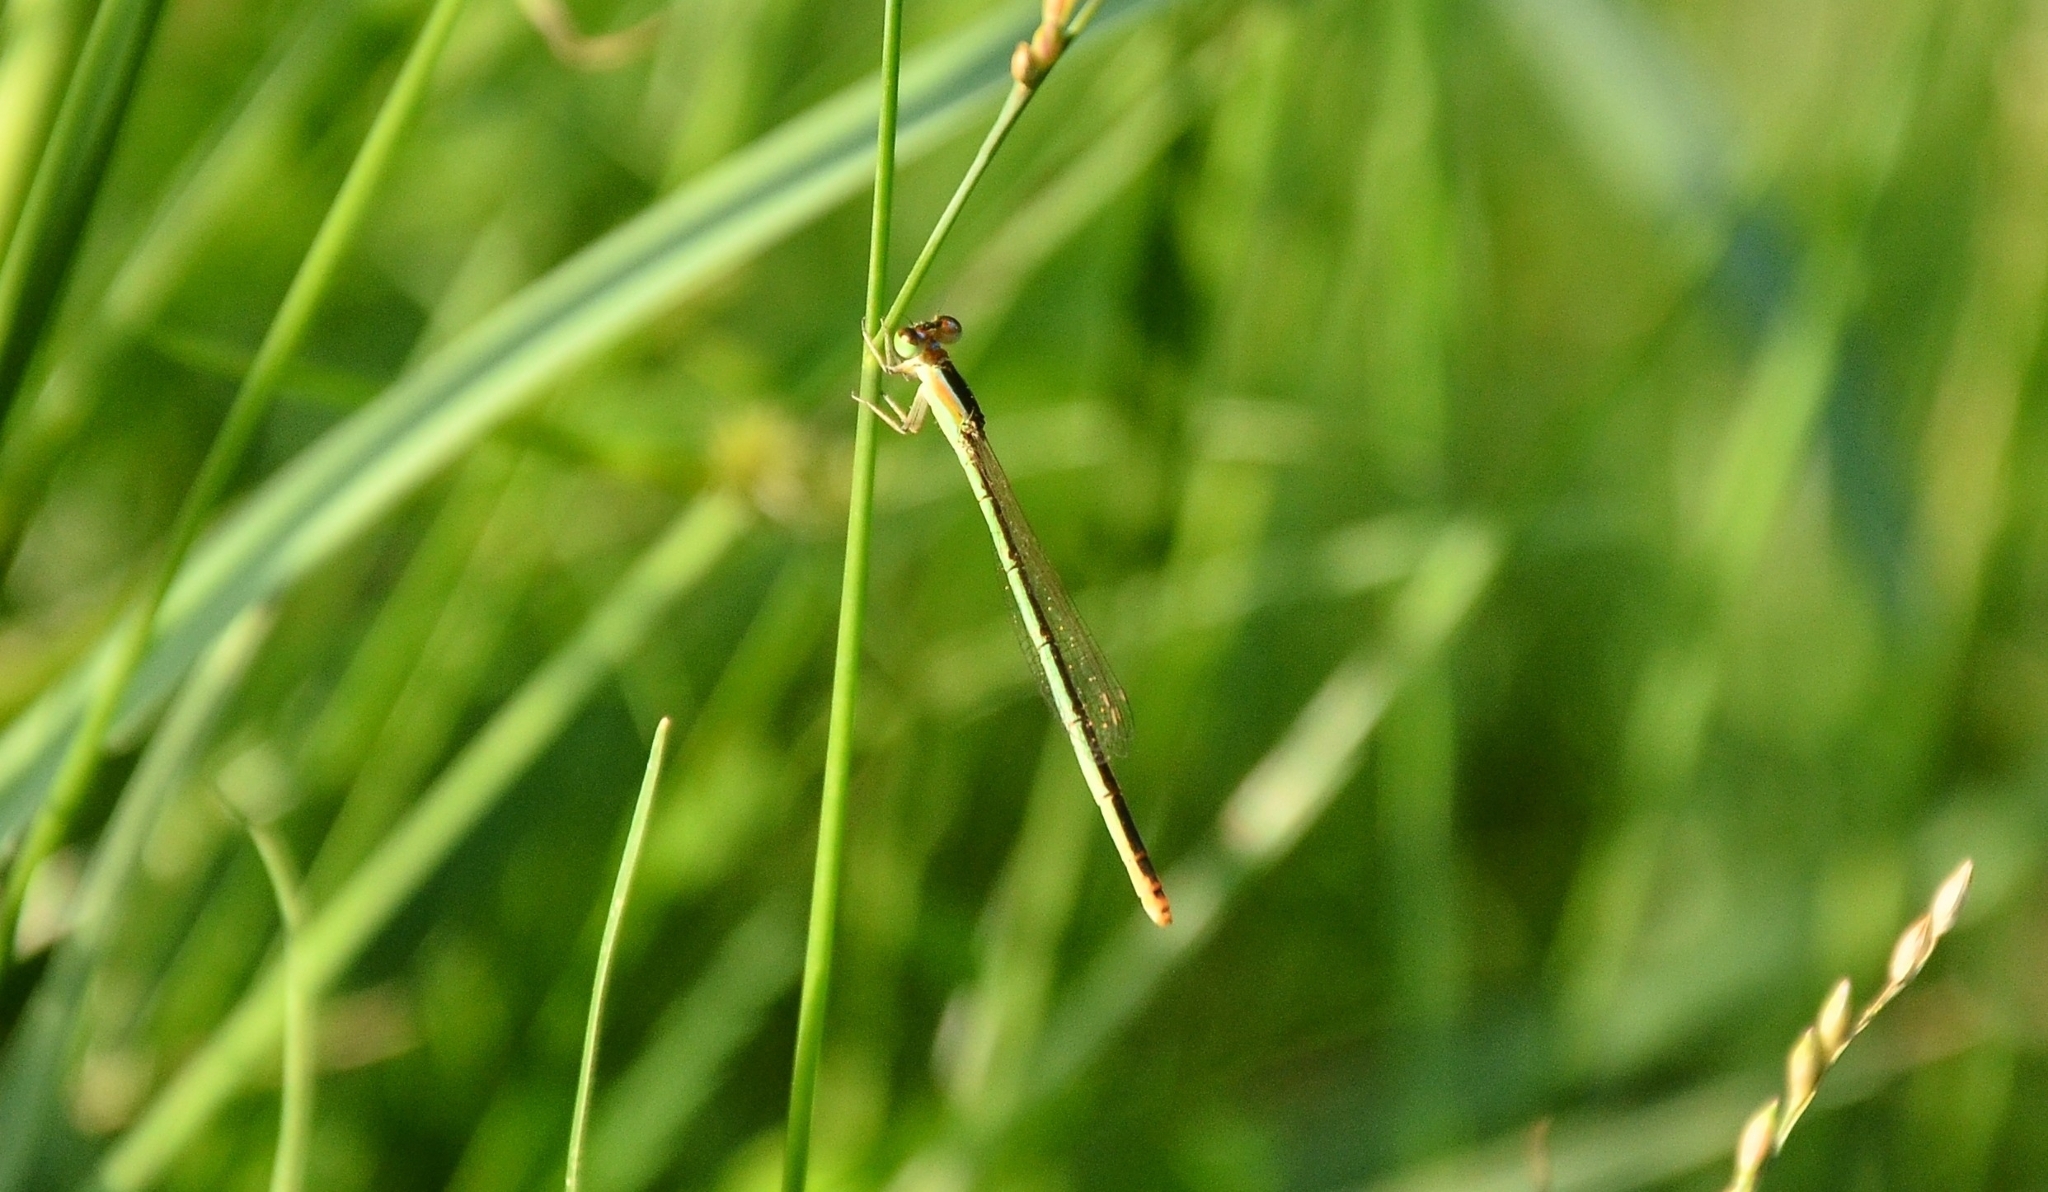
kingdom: Animalia
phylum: Arthropoda
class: Insecta
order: Odonata
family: Coenagrionidae
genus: Agriocnemis
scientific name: Agriocnemis pygmaea
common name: Pygmy wisp
